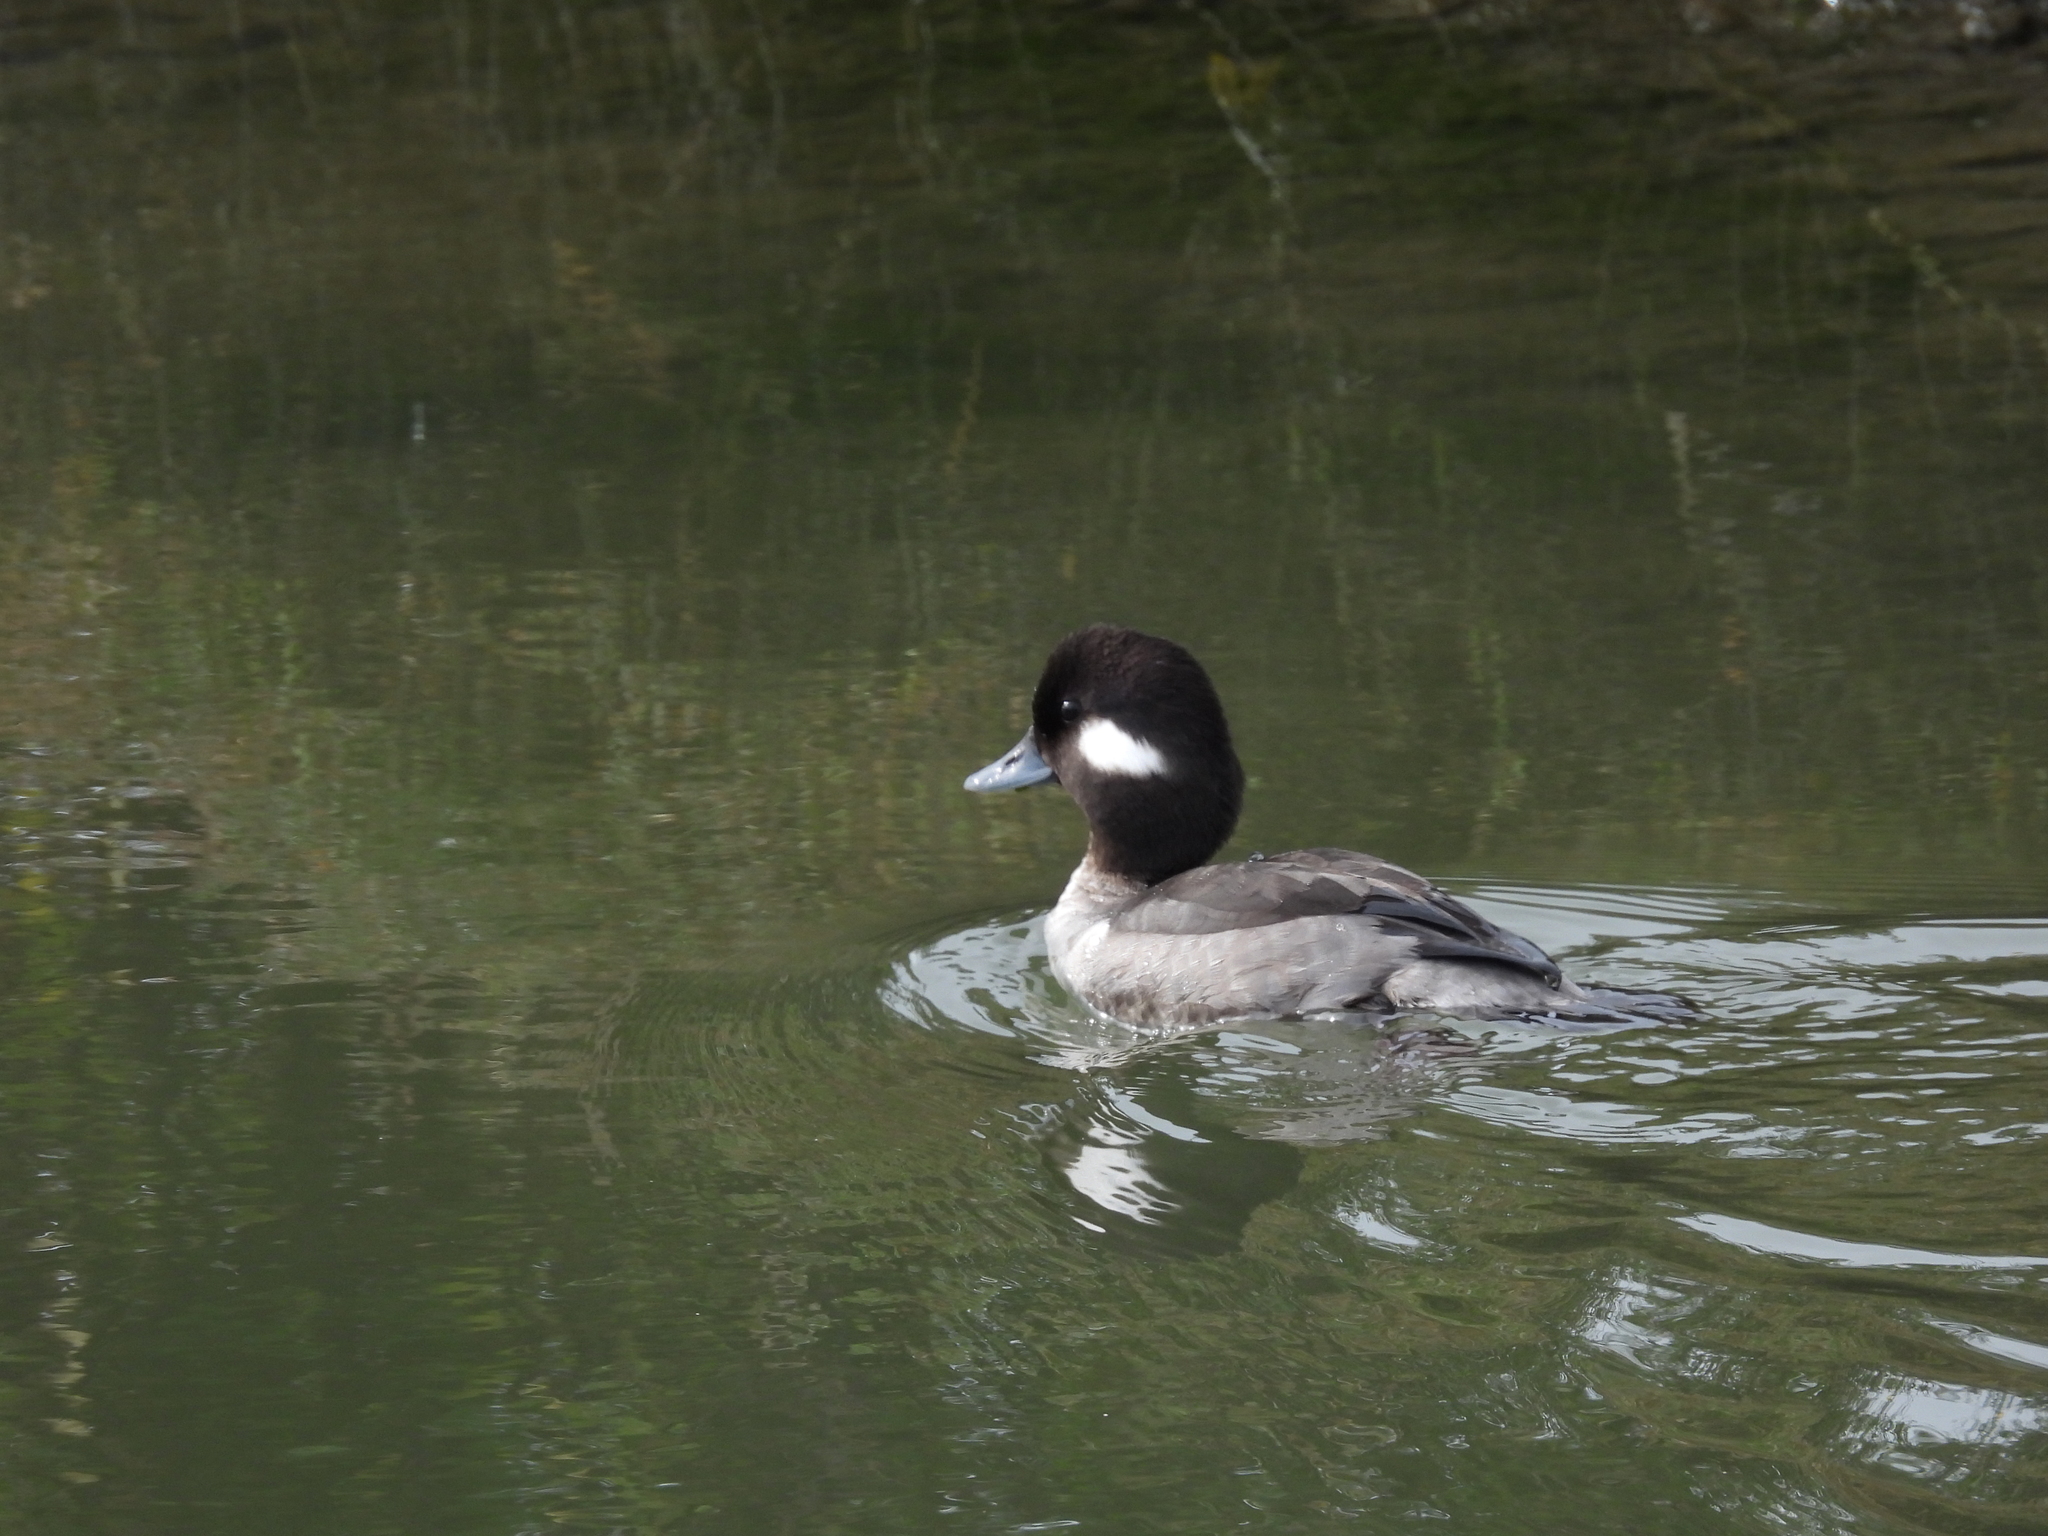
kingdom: Animalia
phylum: Chordata
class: Aves
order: Anseriformes
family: Anatidae
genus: Bucephala
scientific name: Bucephala albeola
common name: Bufflehead
